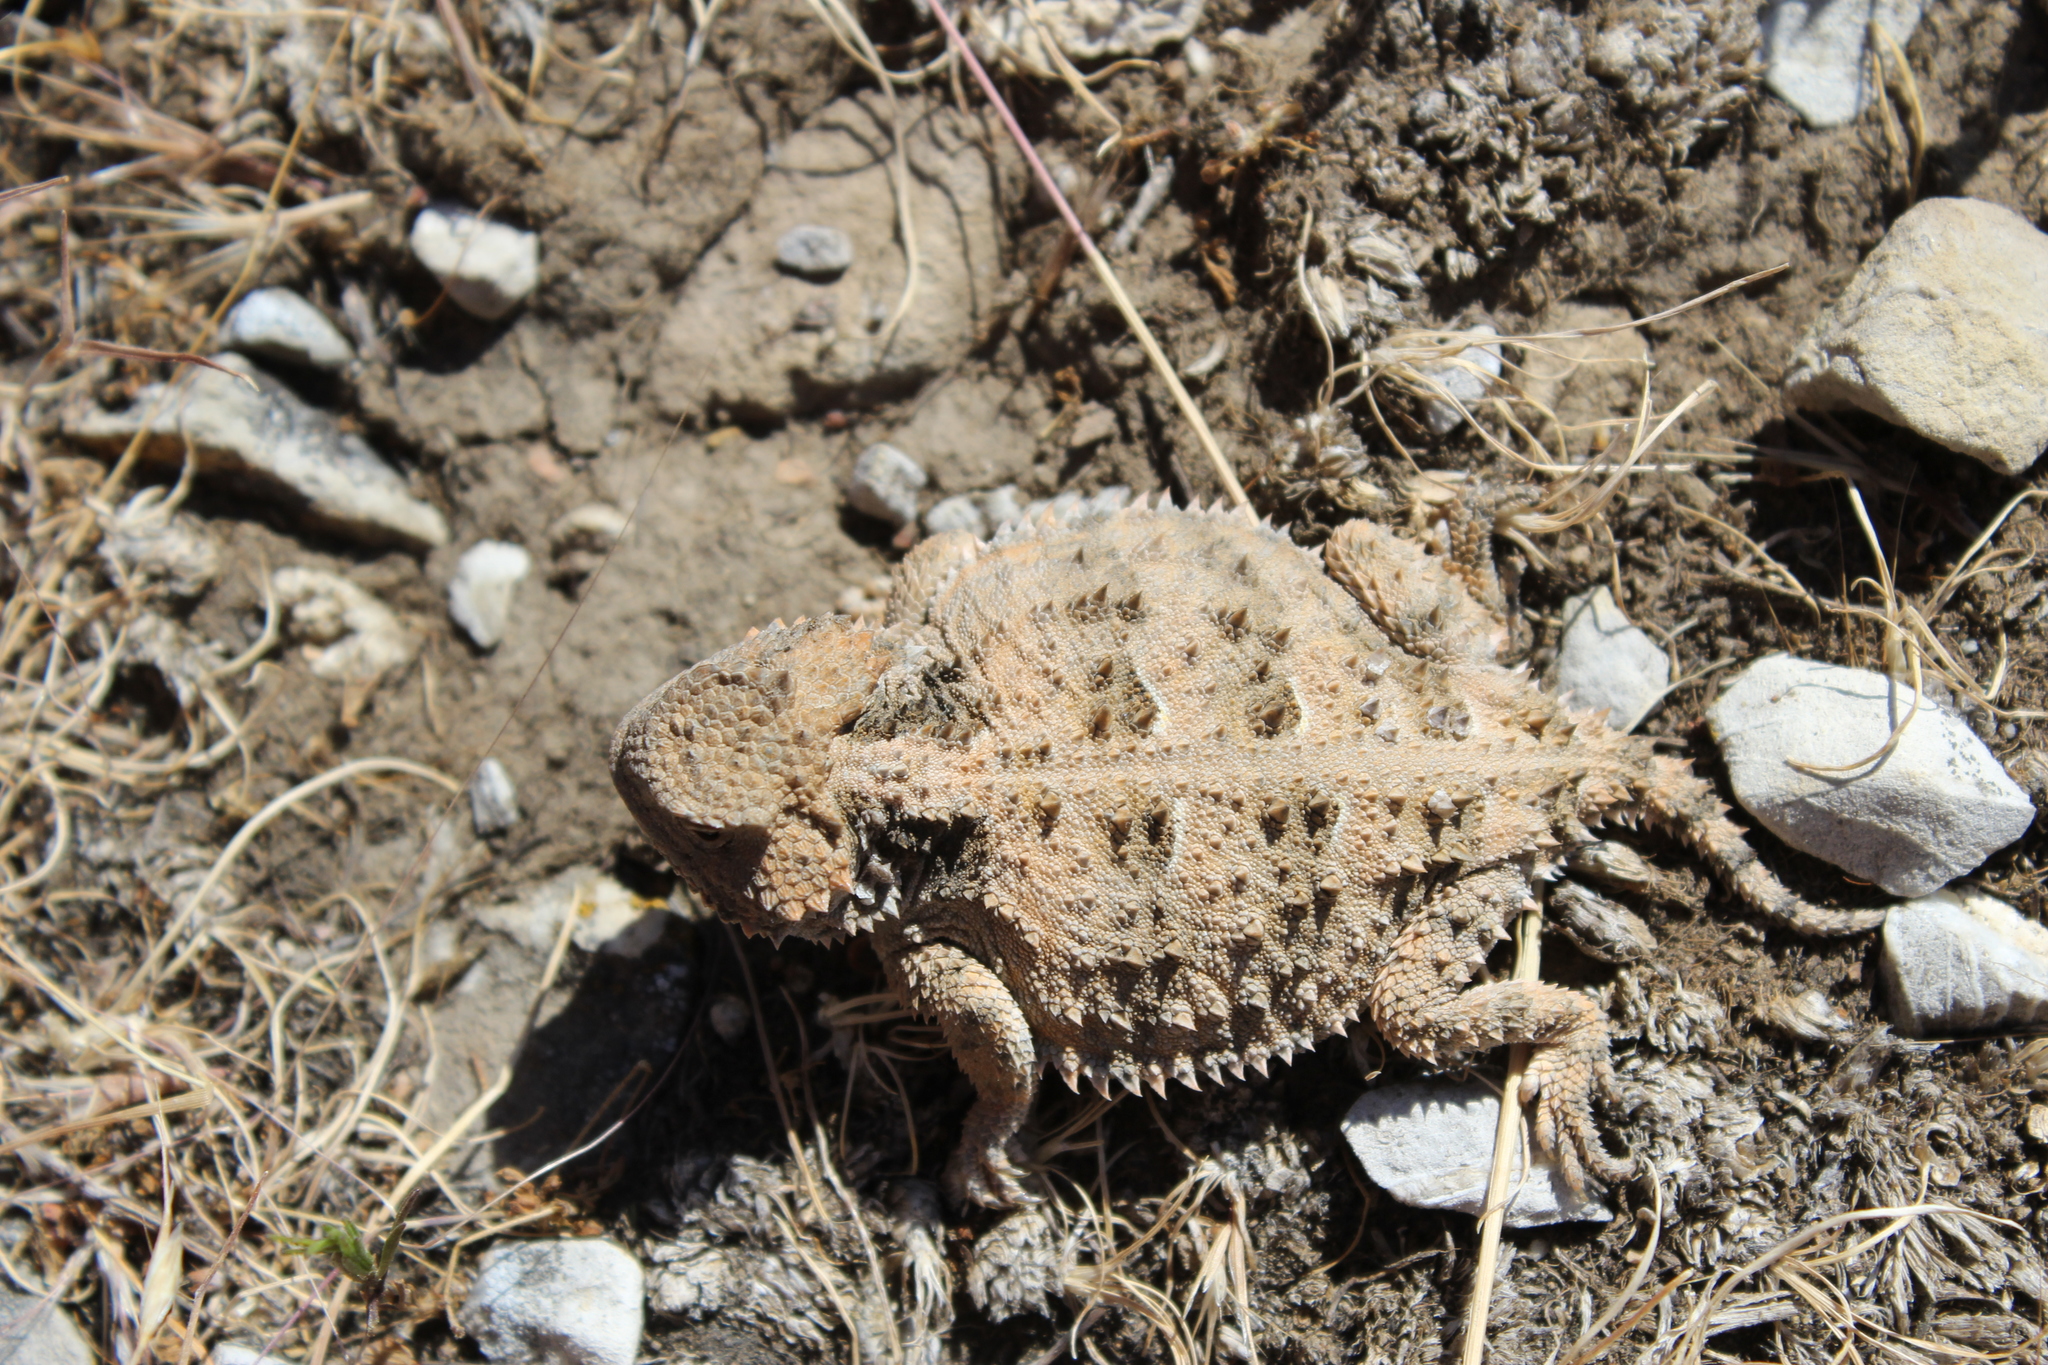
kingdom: Animalia
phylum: Chordata
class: Squamata
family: Phrynosomatidae
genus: Phrynosoma
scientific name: Phrynosoma hernandesi
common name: Greater short-horned lizard
